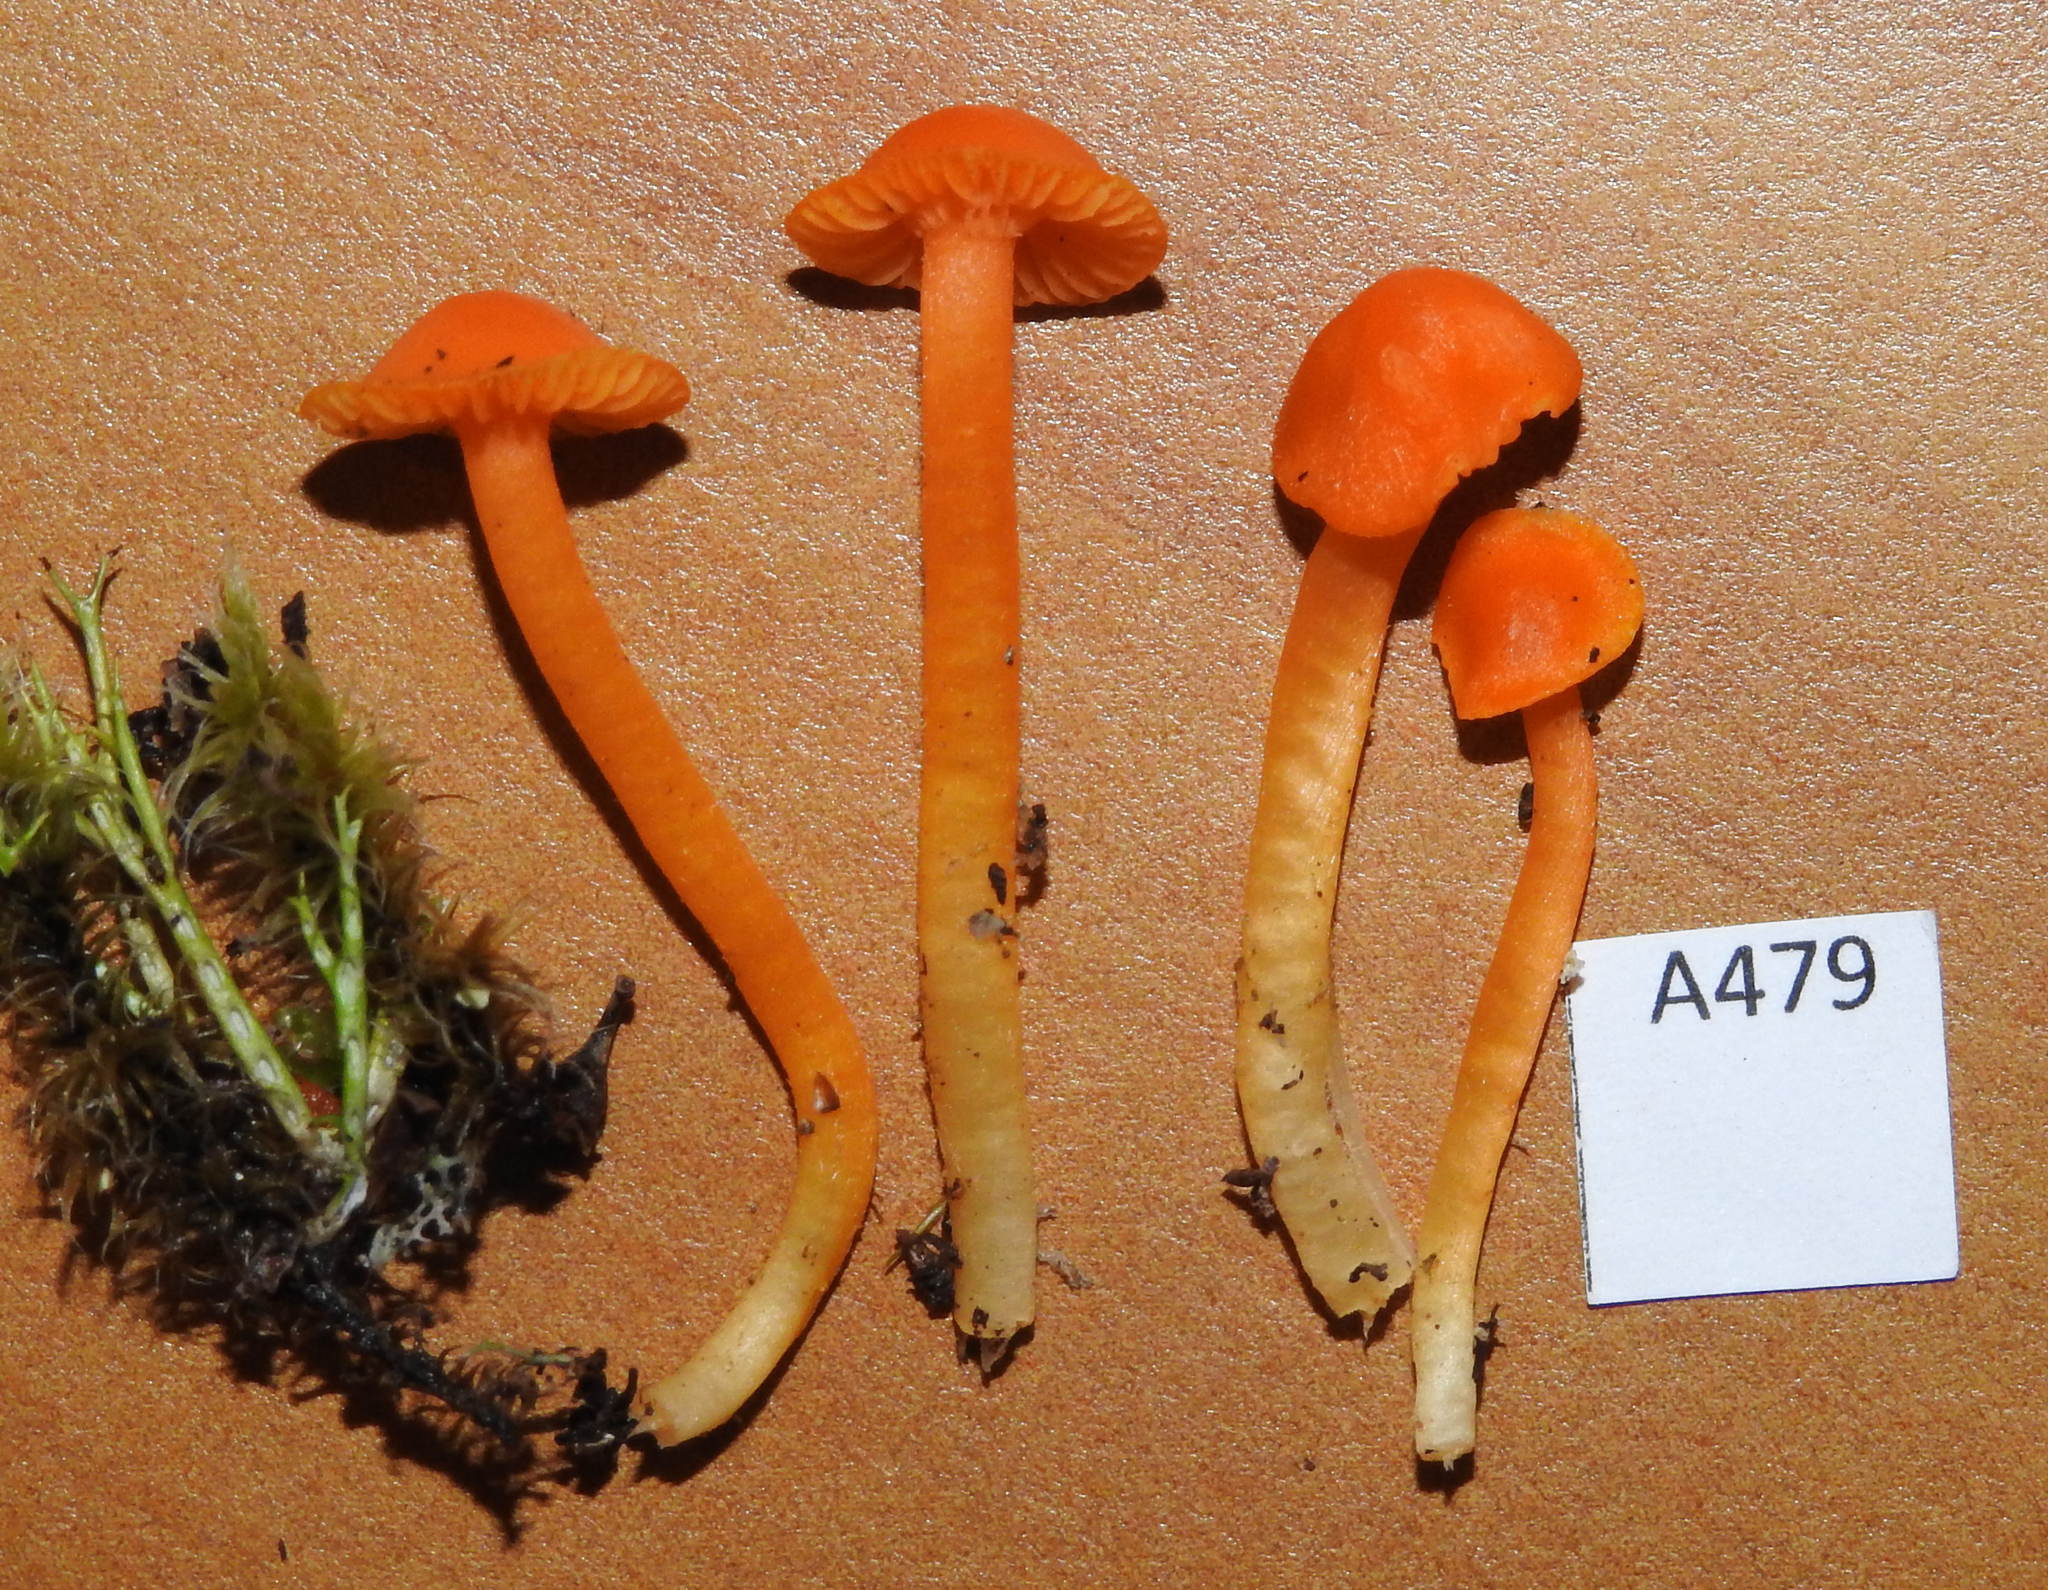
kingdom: Fungi
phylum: Basidiomycota
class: Agaricomycetes
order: Agaricales
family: Hygrophoraceae
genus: Cuphophyllus
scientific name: Cuphophyllus
